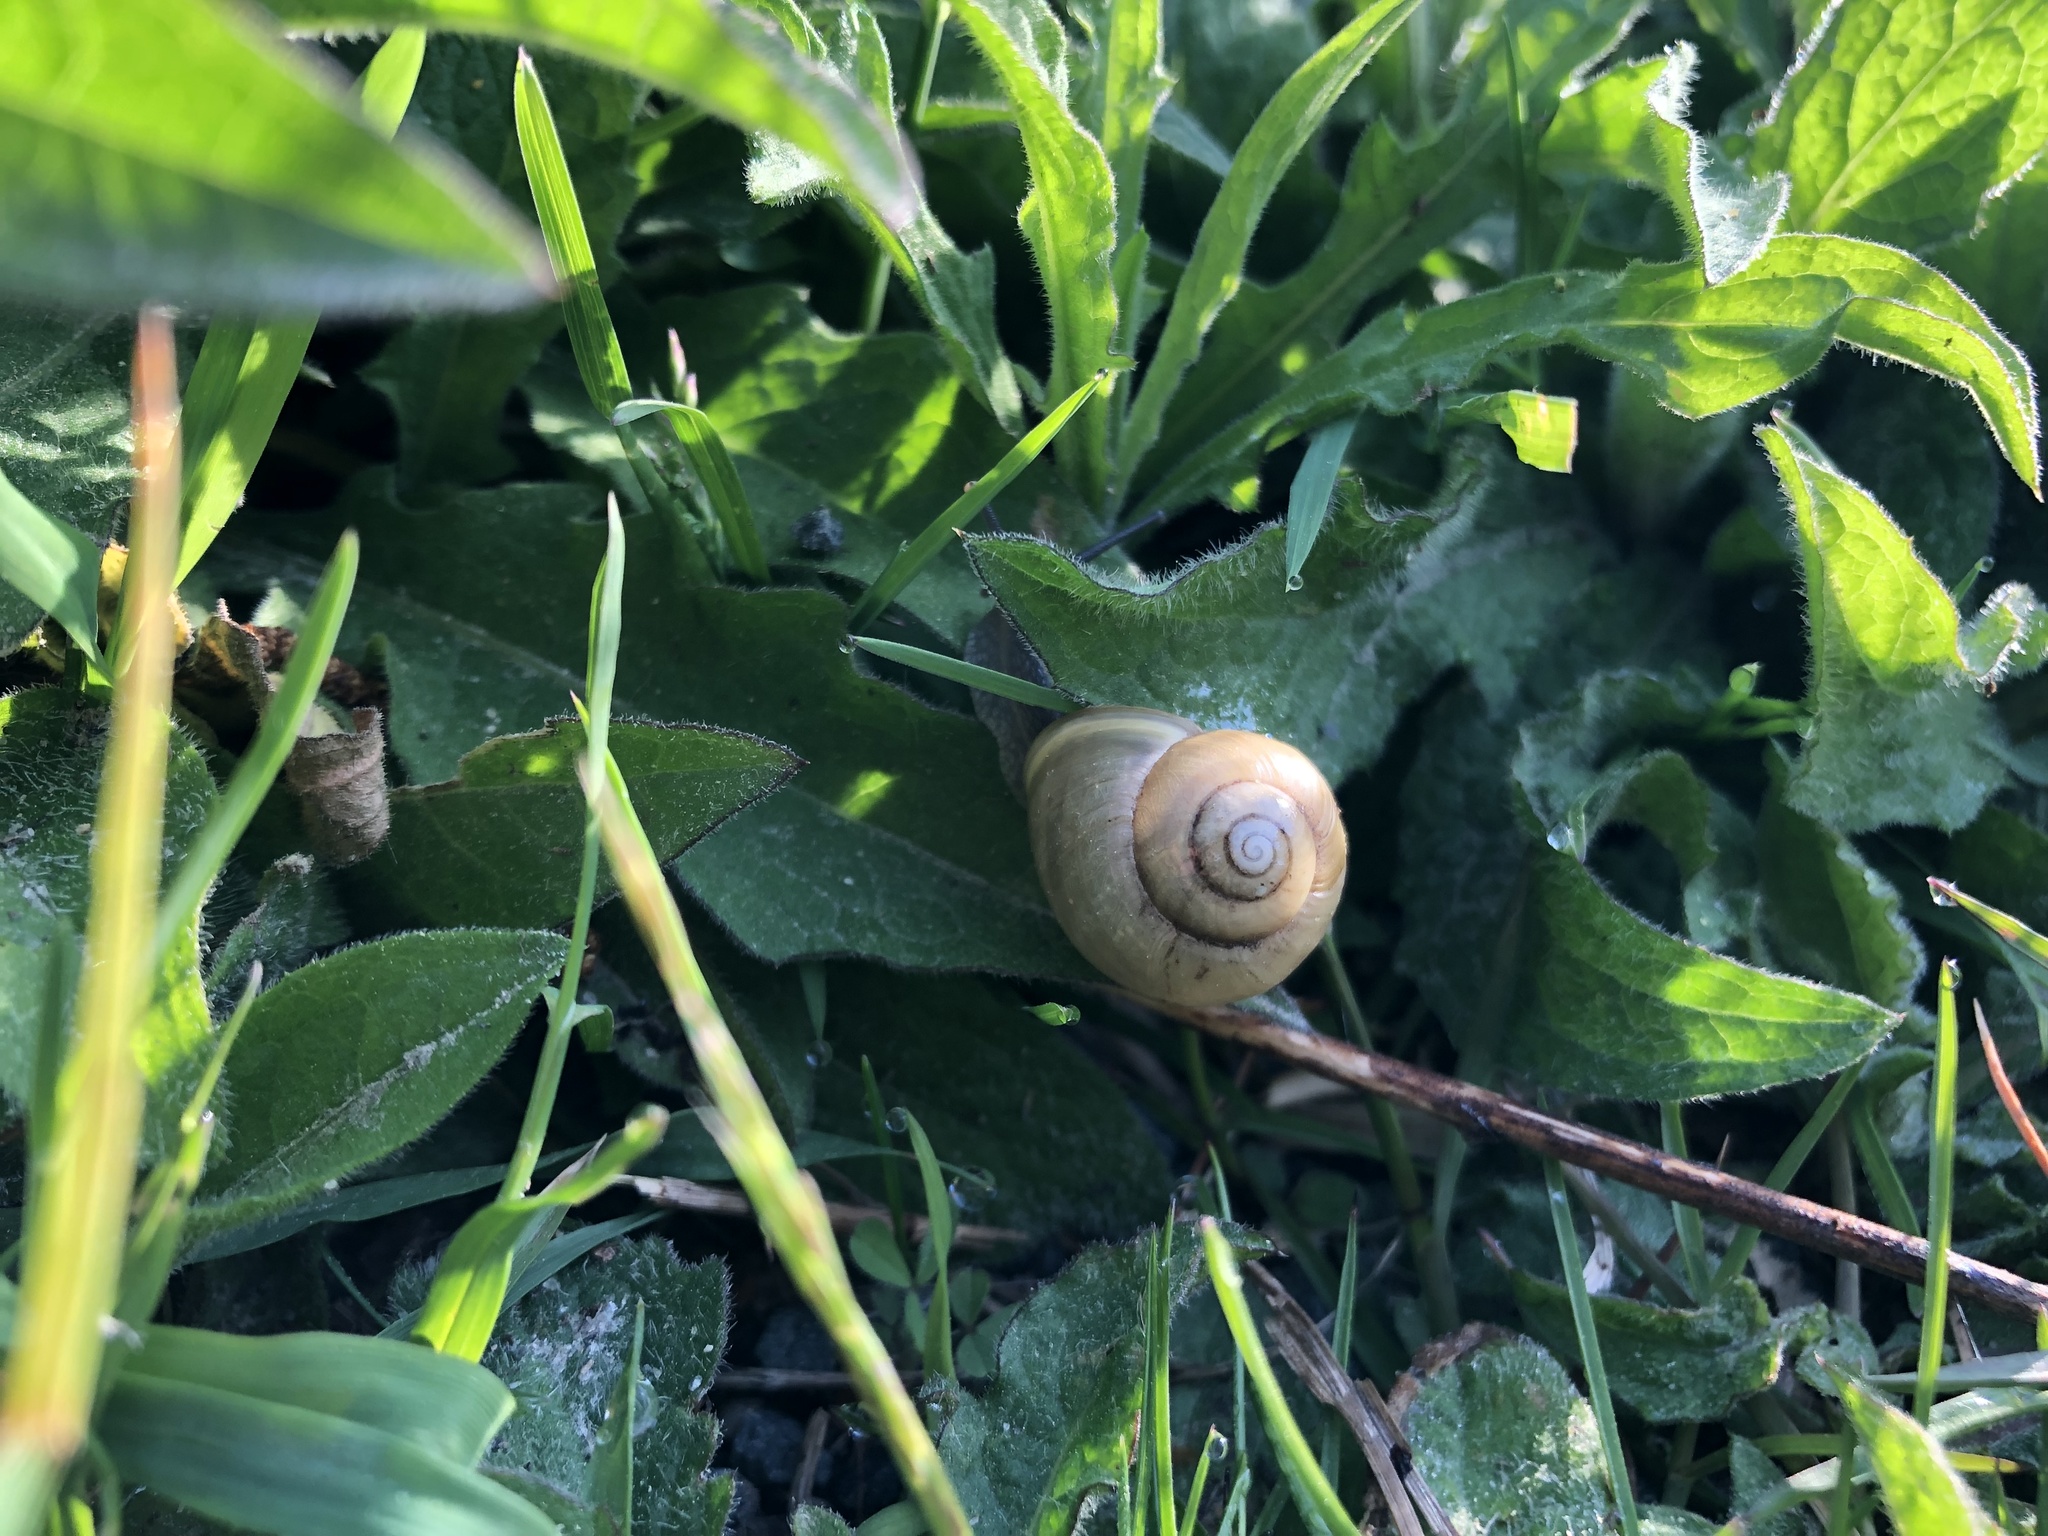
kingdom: Animalia
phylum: Mollusca
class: Gastropoda
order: Stylommatophora
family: Helicidae
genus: Cepaea
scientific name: Cepaea hortensis
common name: White-lip gardensnail
